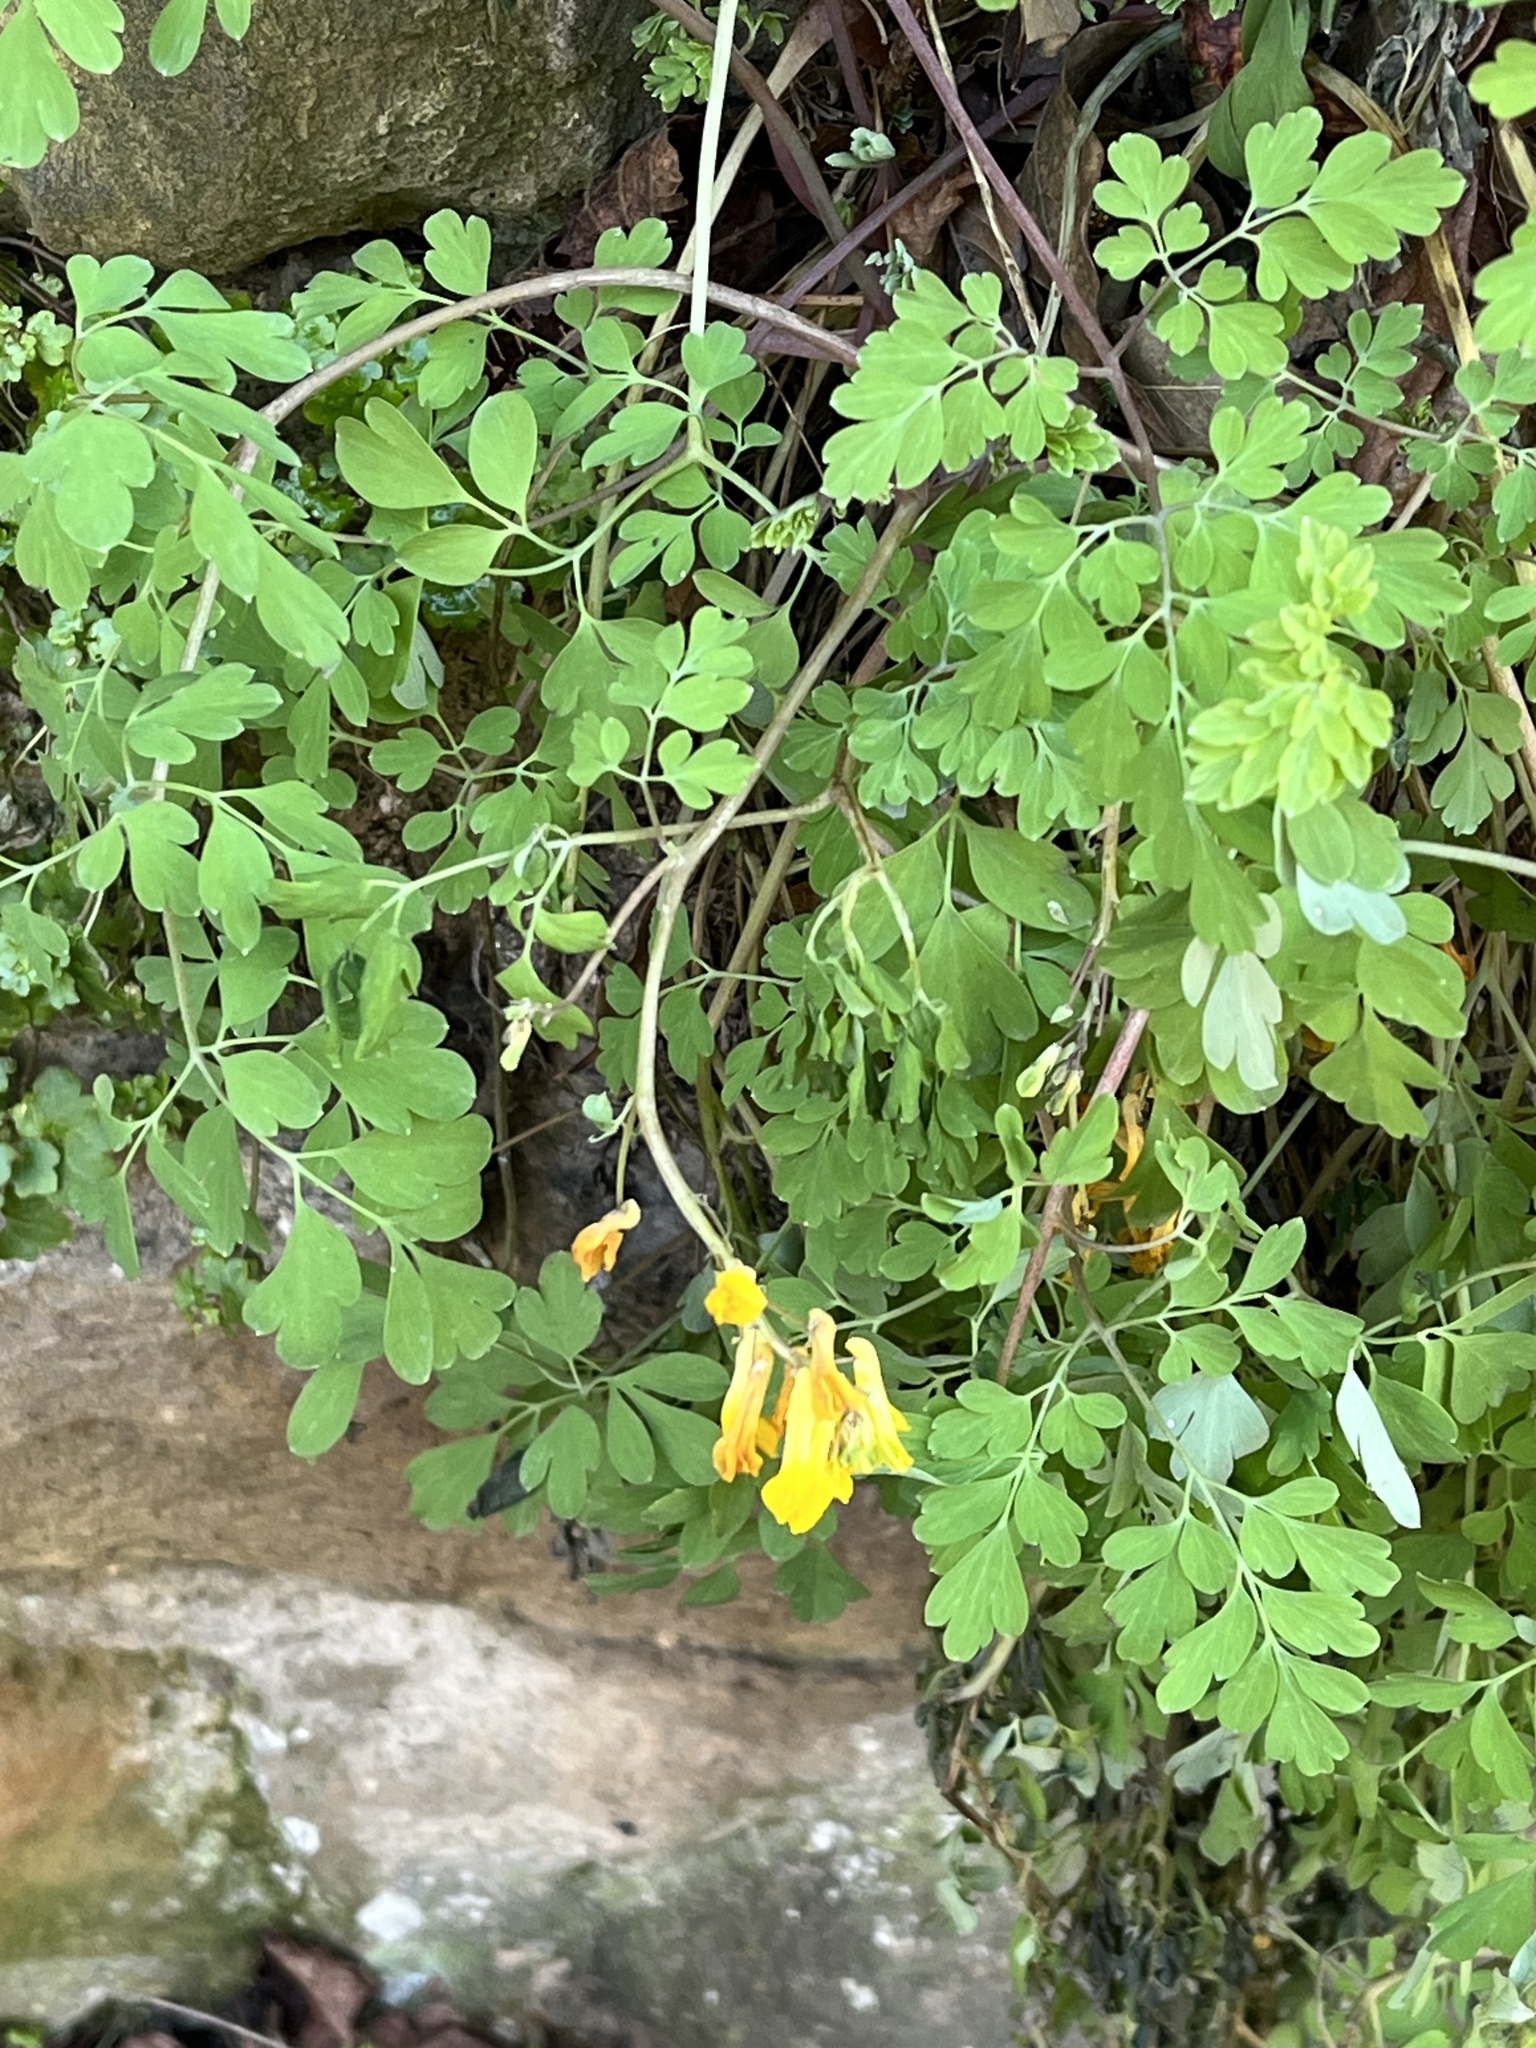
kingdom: Plantae
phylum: Tracheophyta
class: Magnoliopsida
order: Ranunculales
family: Papaveraceae
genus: Pseudofumaria
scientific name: Pseudofumaria lutea
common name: Yellow corydalis
